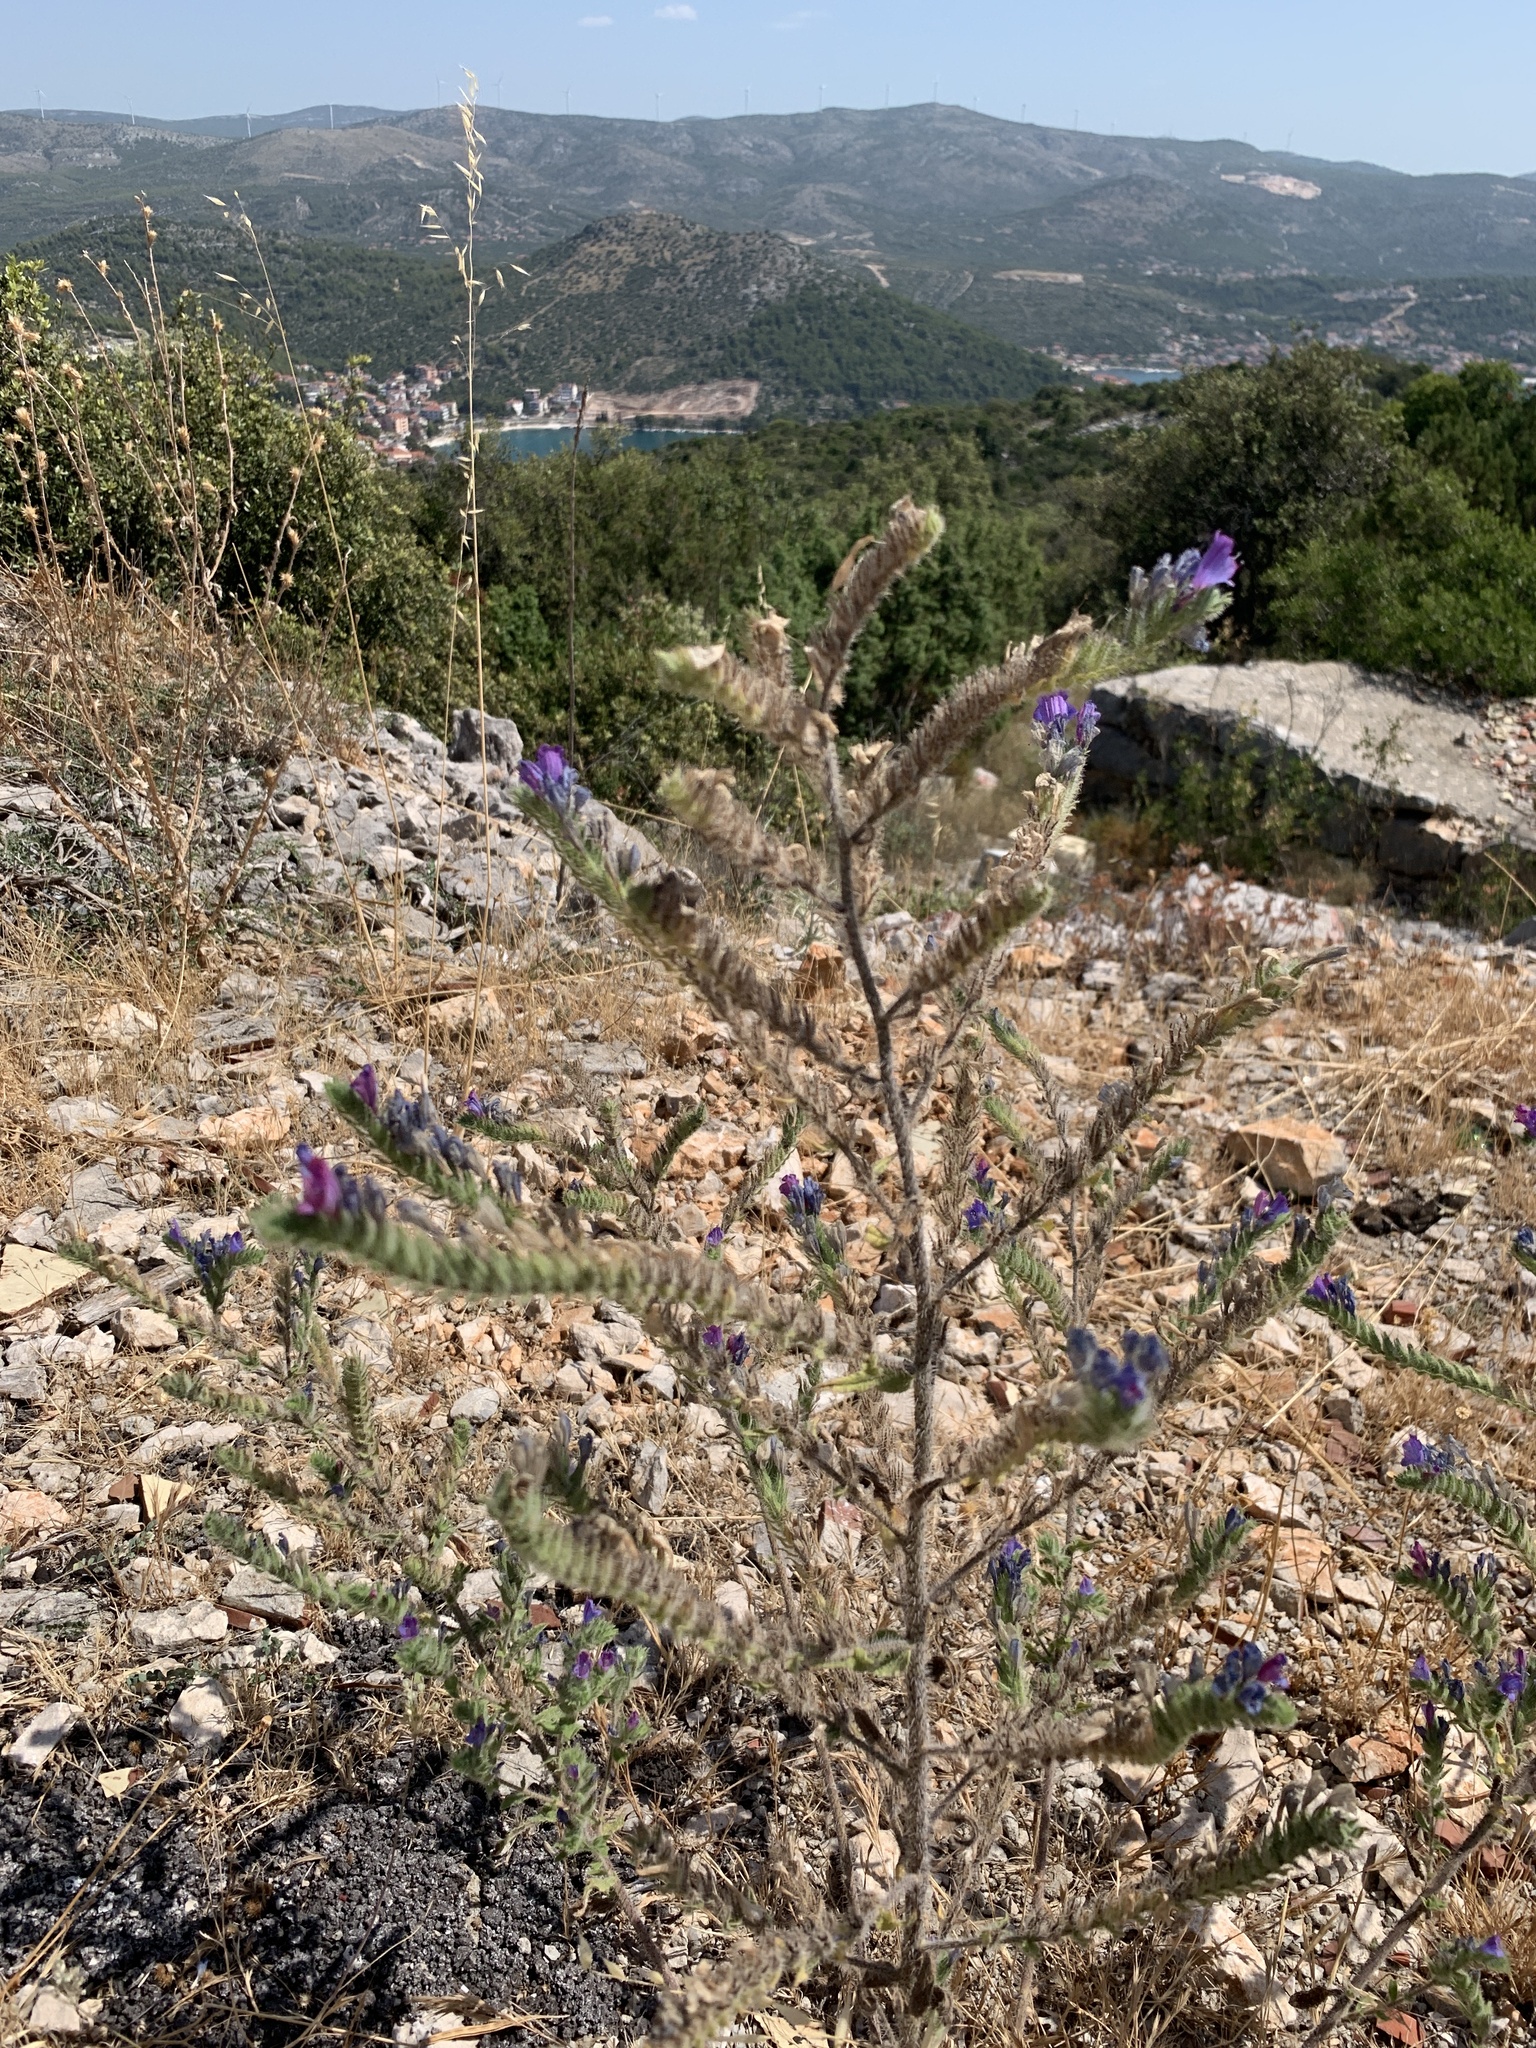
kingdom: Plantae
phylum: Tracheophyta
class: Magnoliopsida
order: Boraginales
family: Boraginaceae
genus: Echium
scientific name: Echium vulgare
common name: Common viper's bugloss
